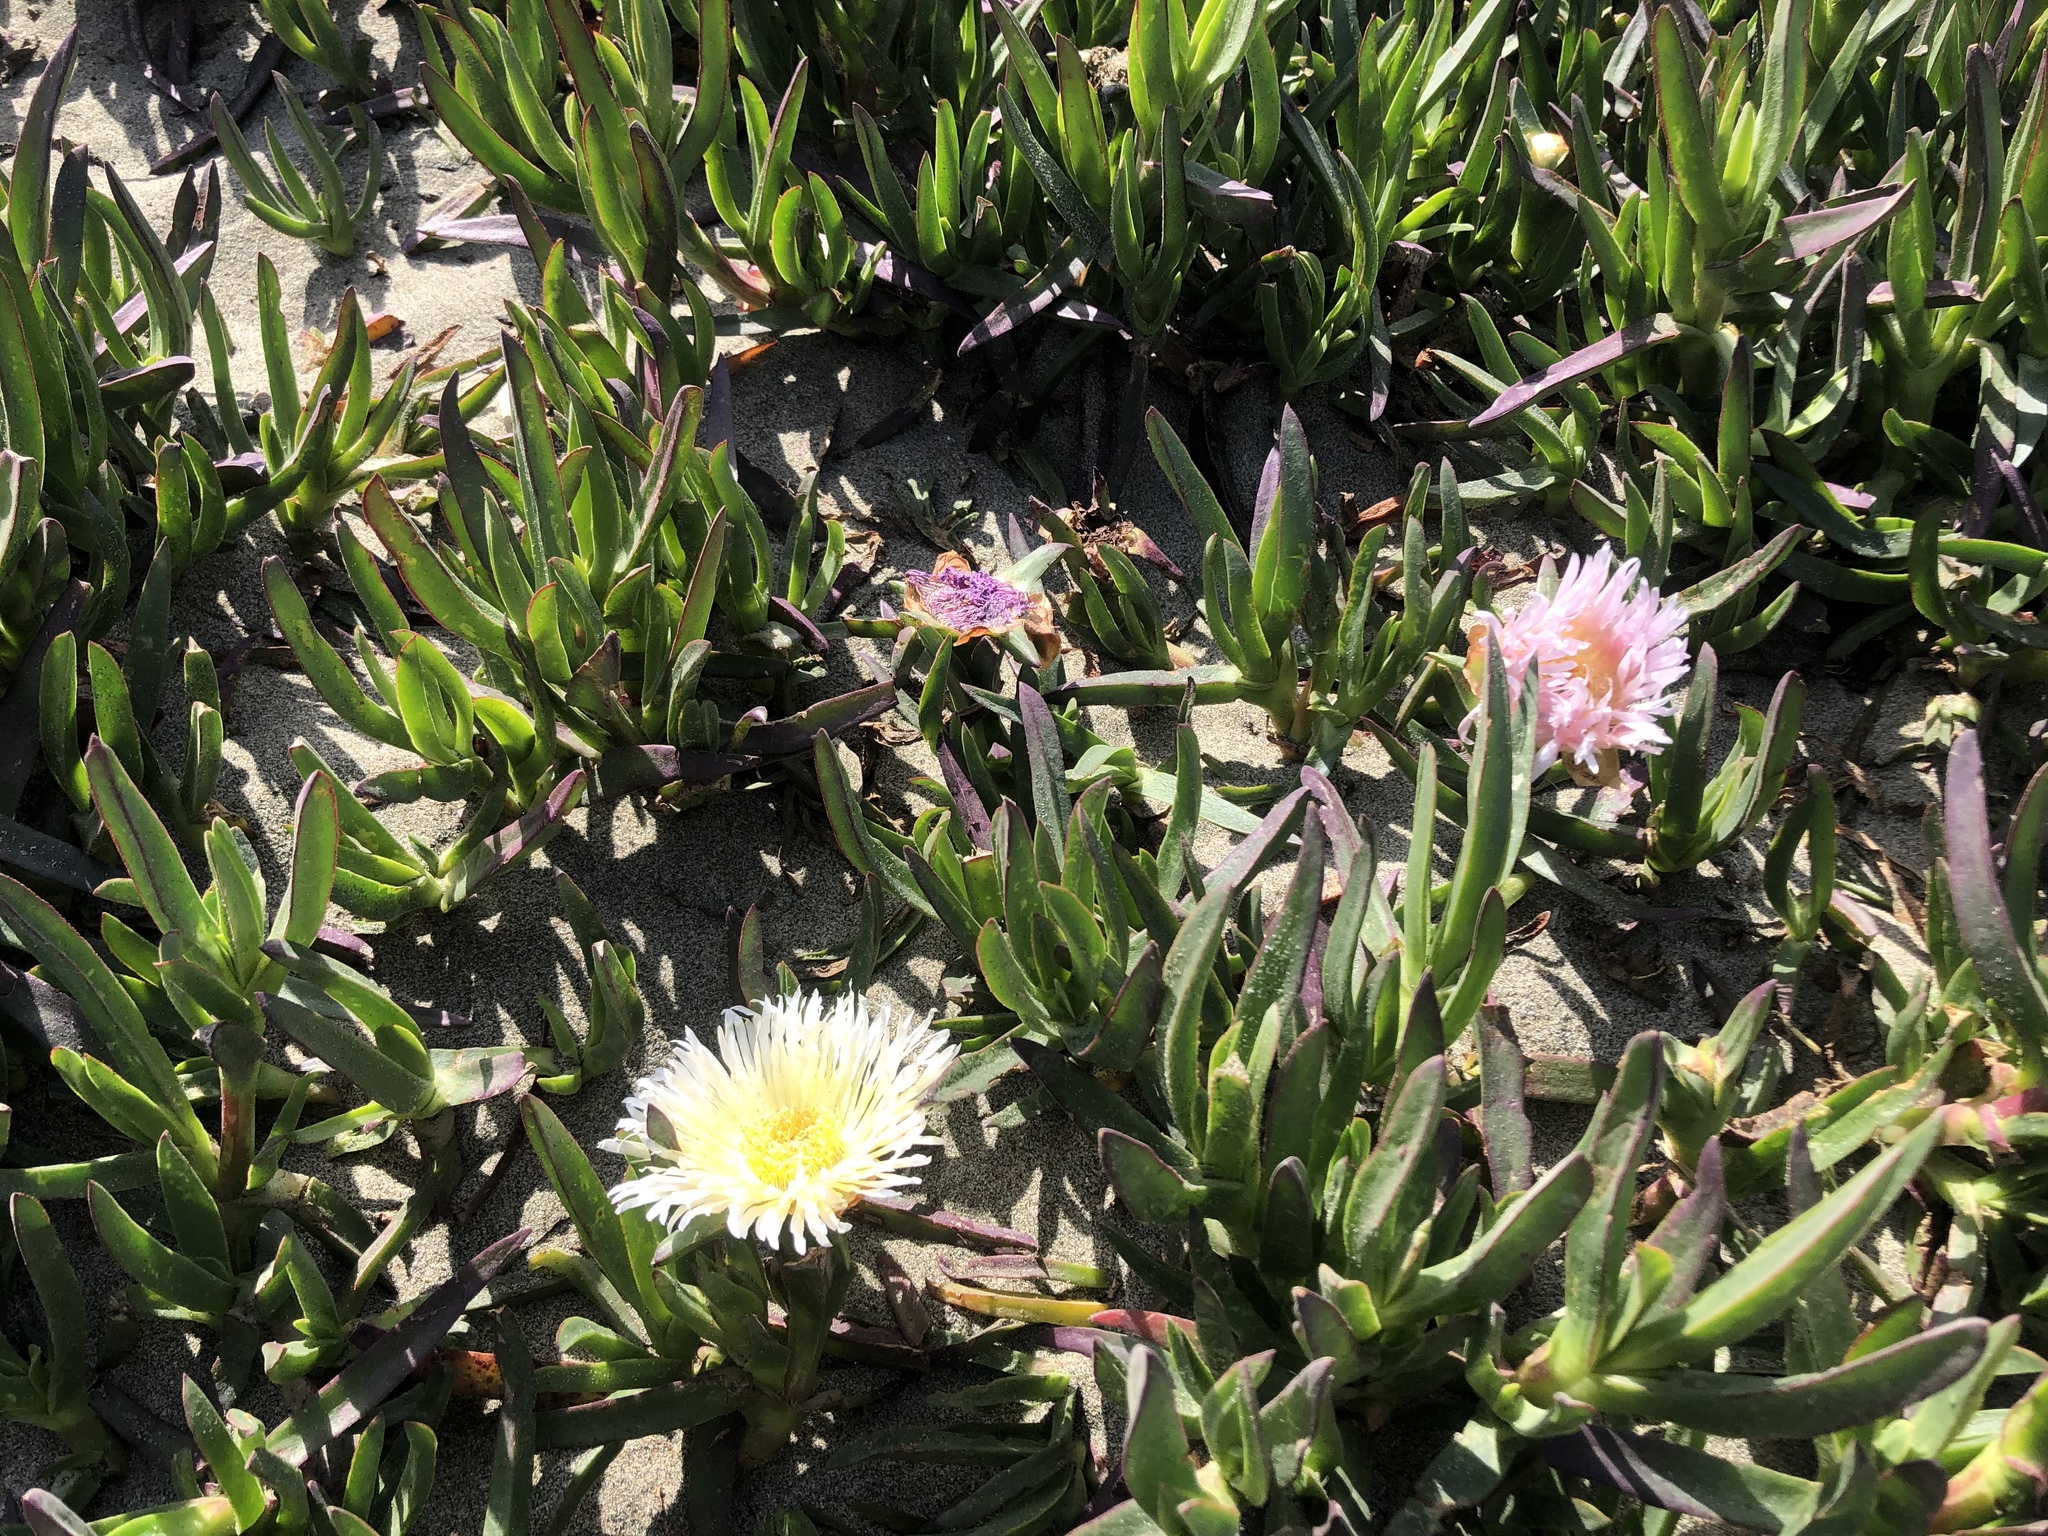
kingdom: Plantae
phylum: Tracheophyta
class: Magnoliopsida
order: Caryophyllales
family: Aizoaceae
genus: Carpobrotus
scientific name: Carpobrotus edulis
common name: Hottentot-fig
